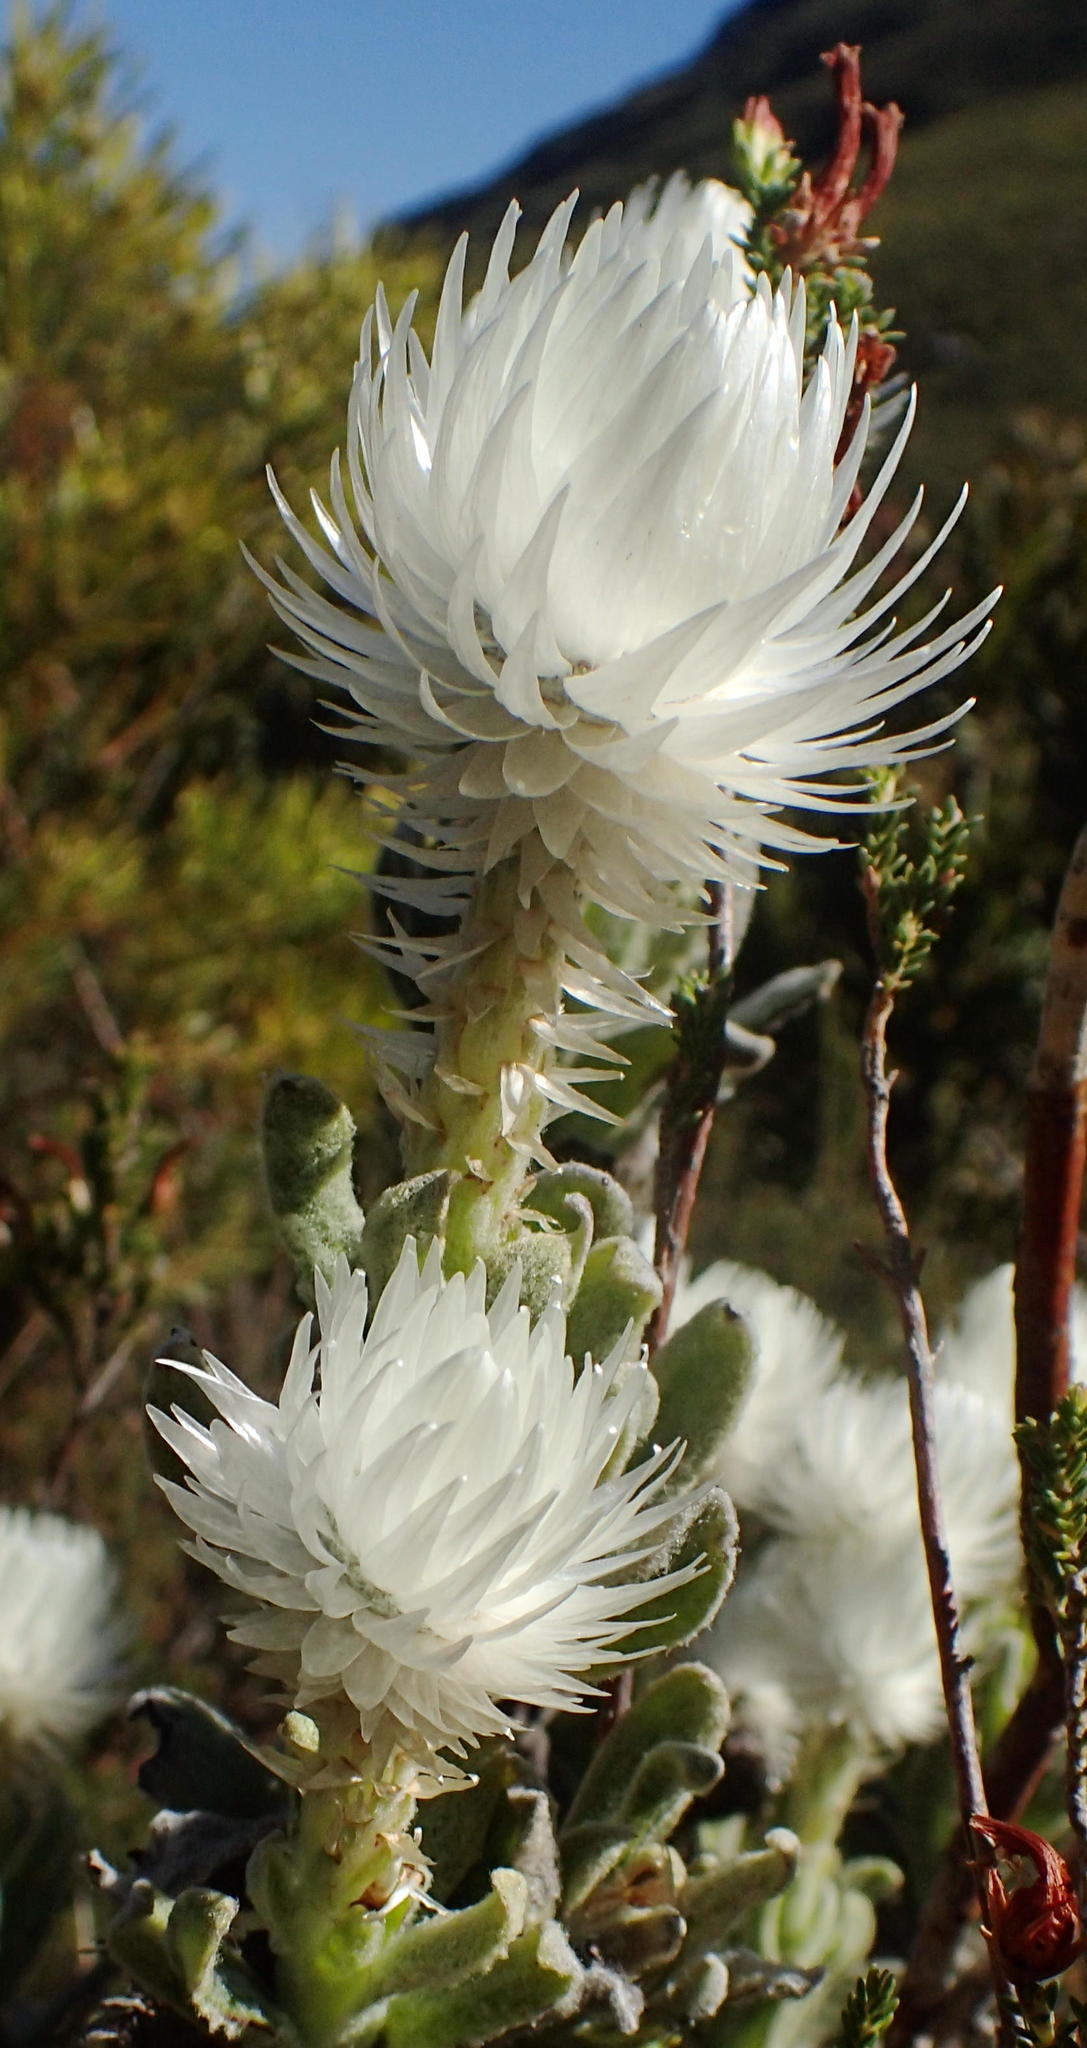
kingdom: Plantae
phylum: Tracheophyta
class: Magnoliopsida
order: Asterales
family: Asteraceae
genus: Syncarpha
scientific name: Syncarpha vestita
